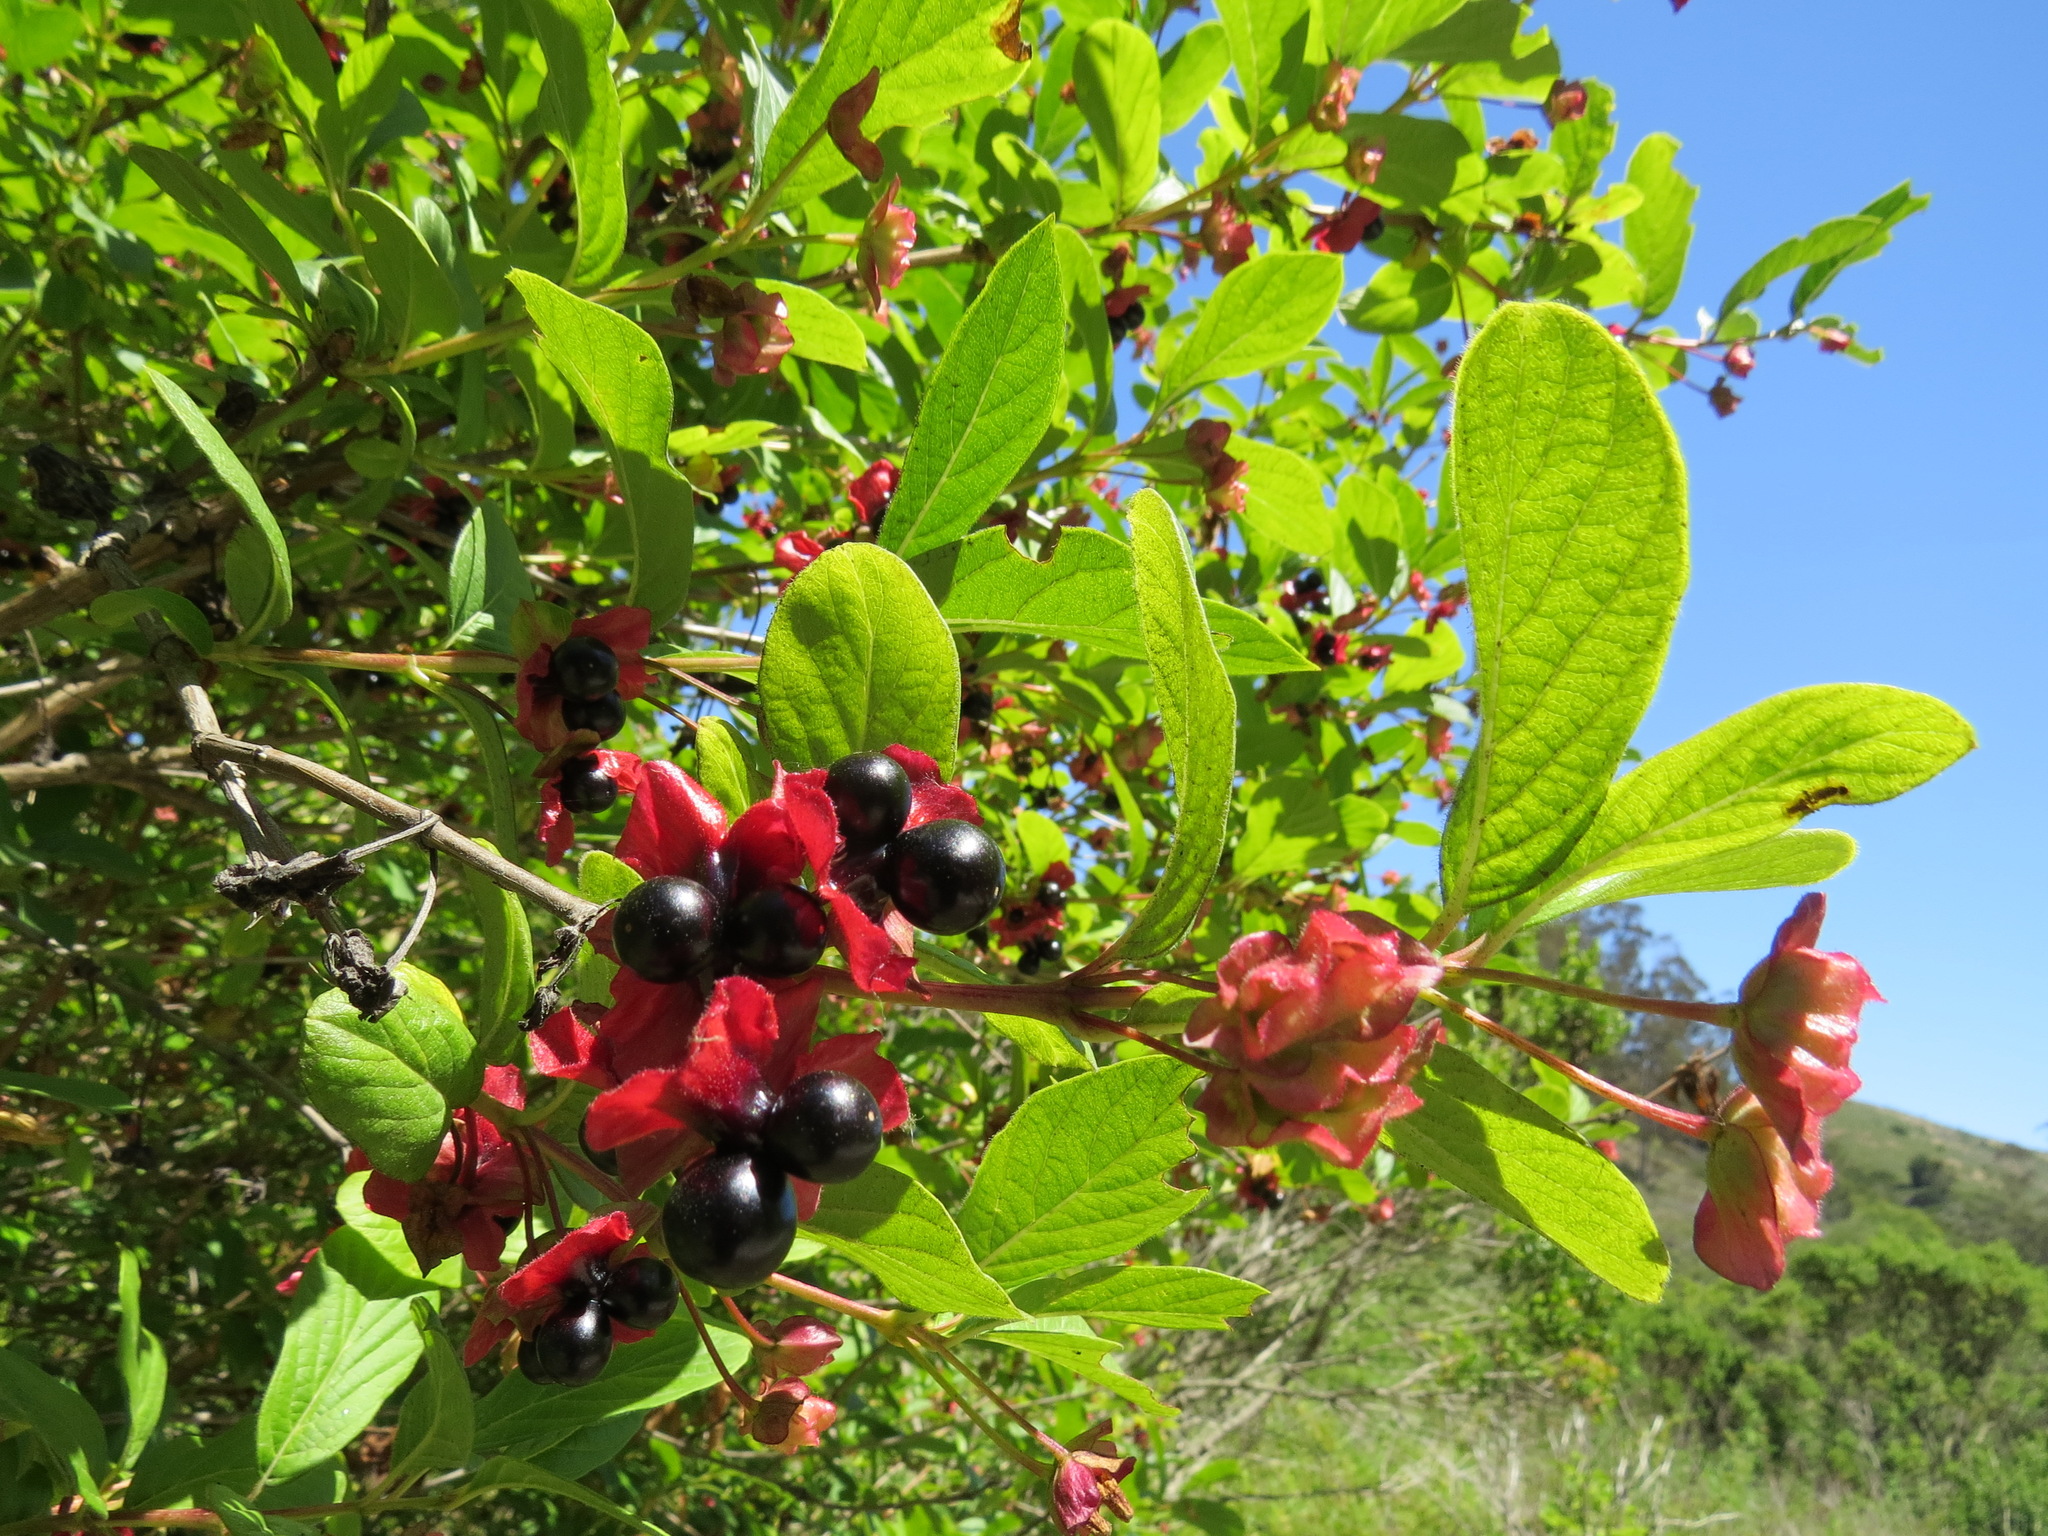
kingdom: Plantae
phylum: Tracheophyta
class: Magnoliopsida
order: Dipsacales
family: Caprifoliaceae
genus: Lonicera
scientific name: Lonicera involucrata
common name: Californian honeysuckle
